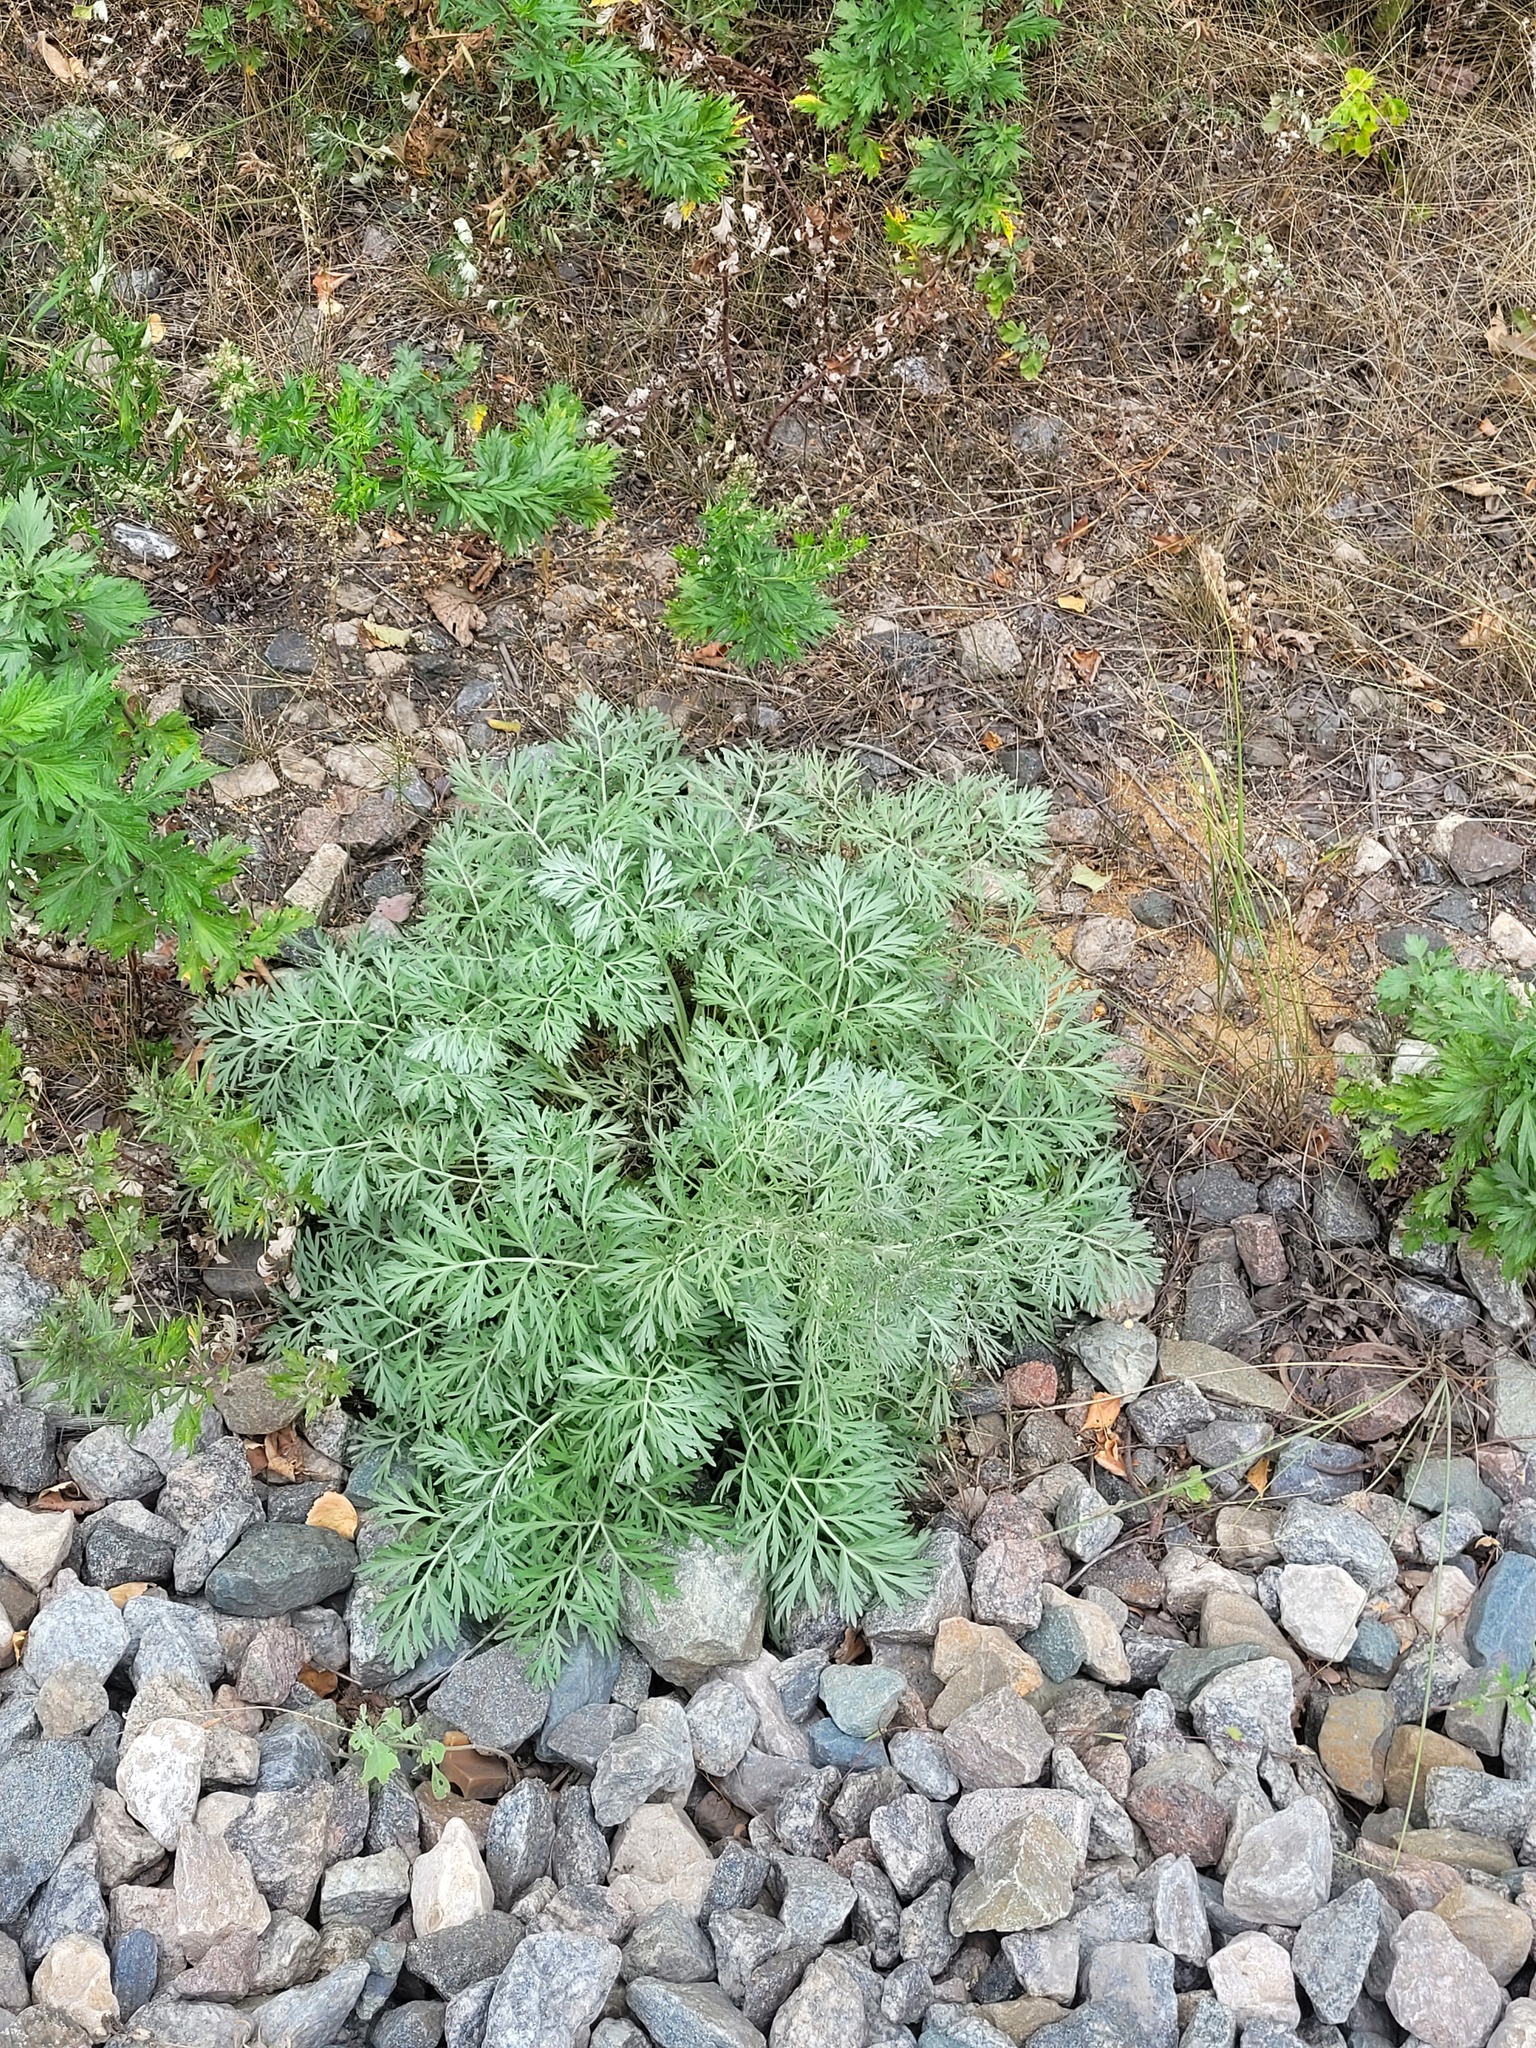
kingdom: Plantae
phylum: Tracheophyta
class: Magnoliopsida
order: Asterales
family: Asteraceae
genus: Artemisia
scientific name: Artemisia absinthium
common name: Wormwood
